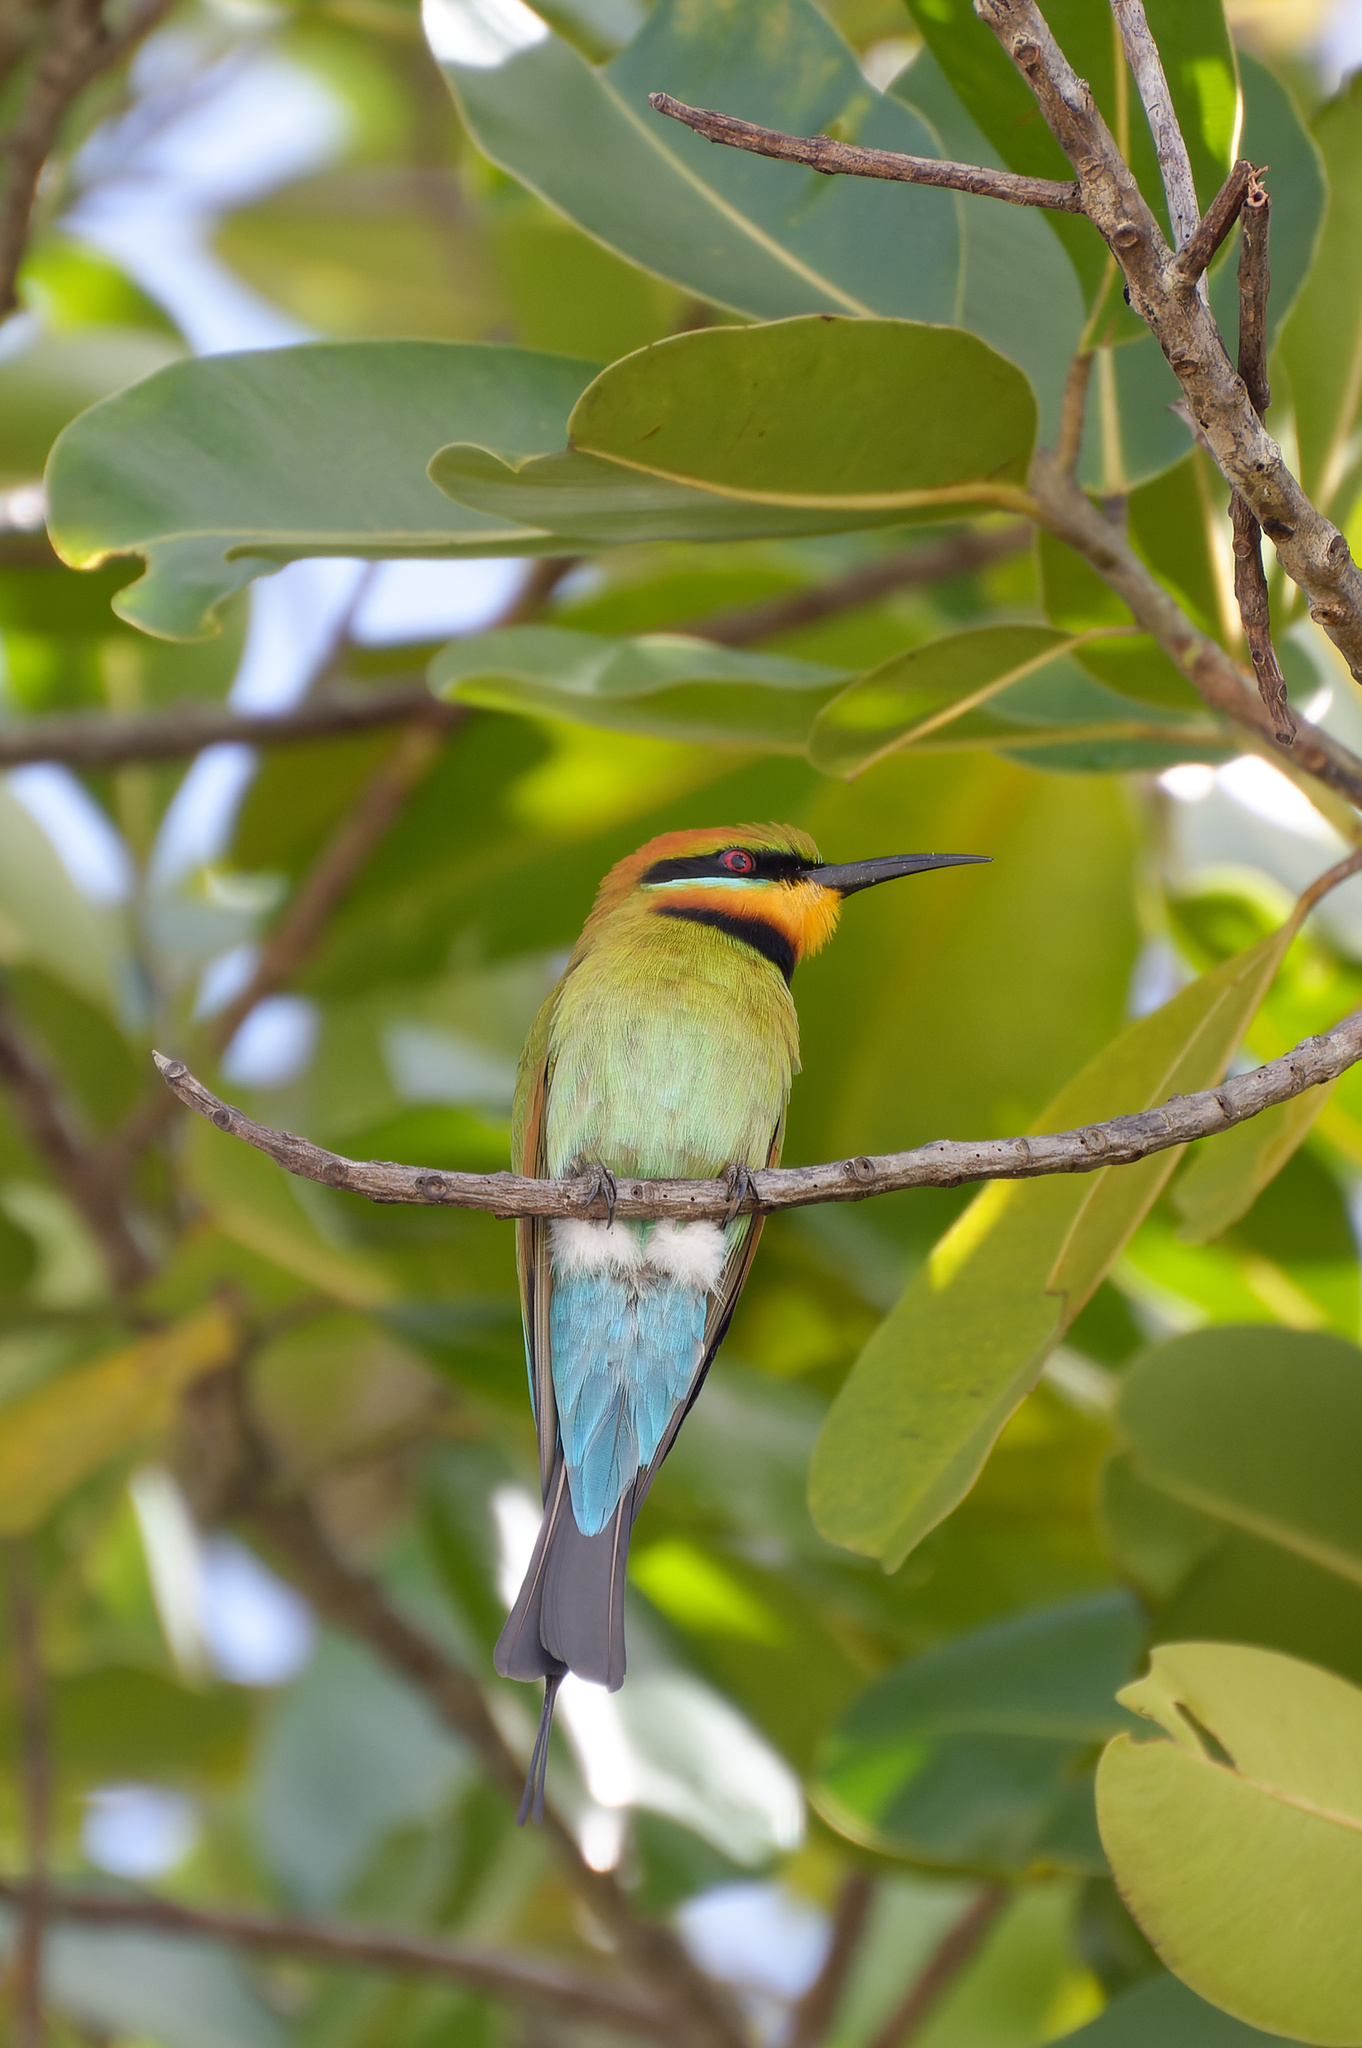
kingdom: Animalia
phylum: Chordata
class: Aves
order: Coraciiformes
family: Meropidae
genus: Merops
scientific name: Merops ornatus
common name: Rainbow bee-eater
